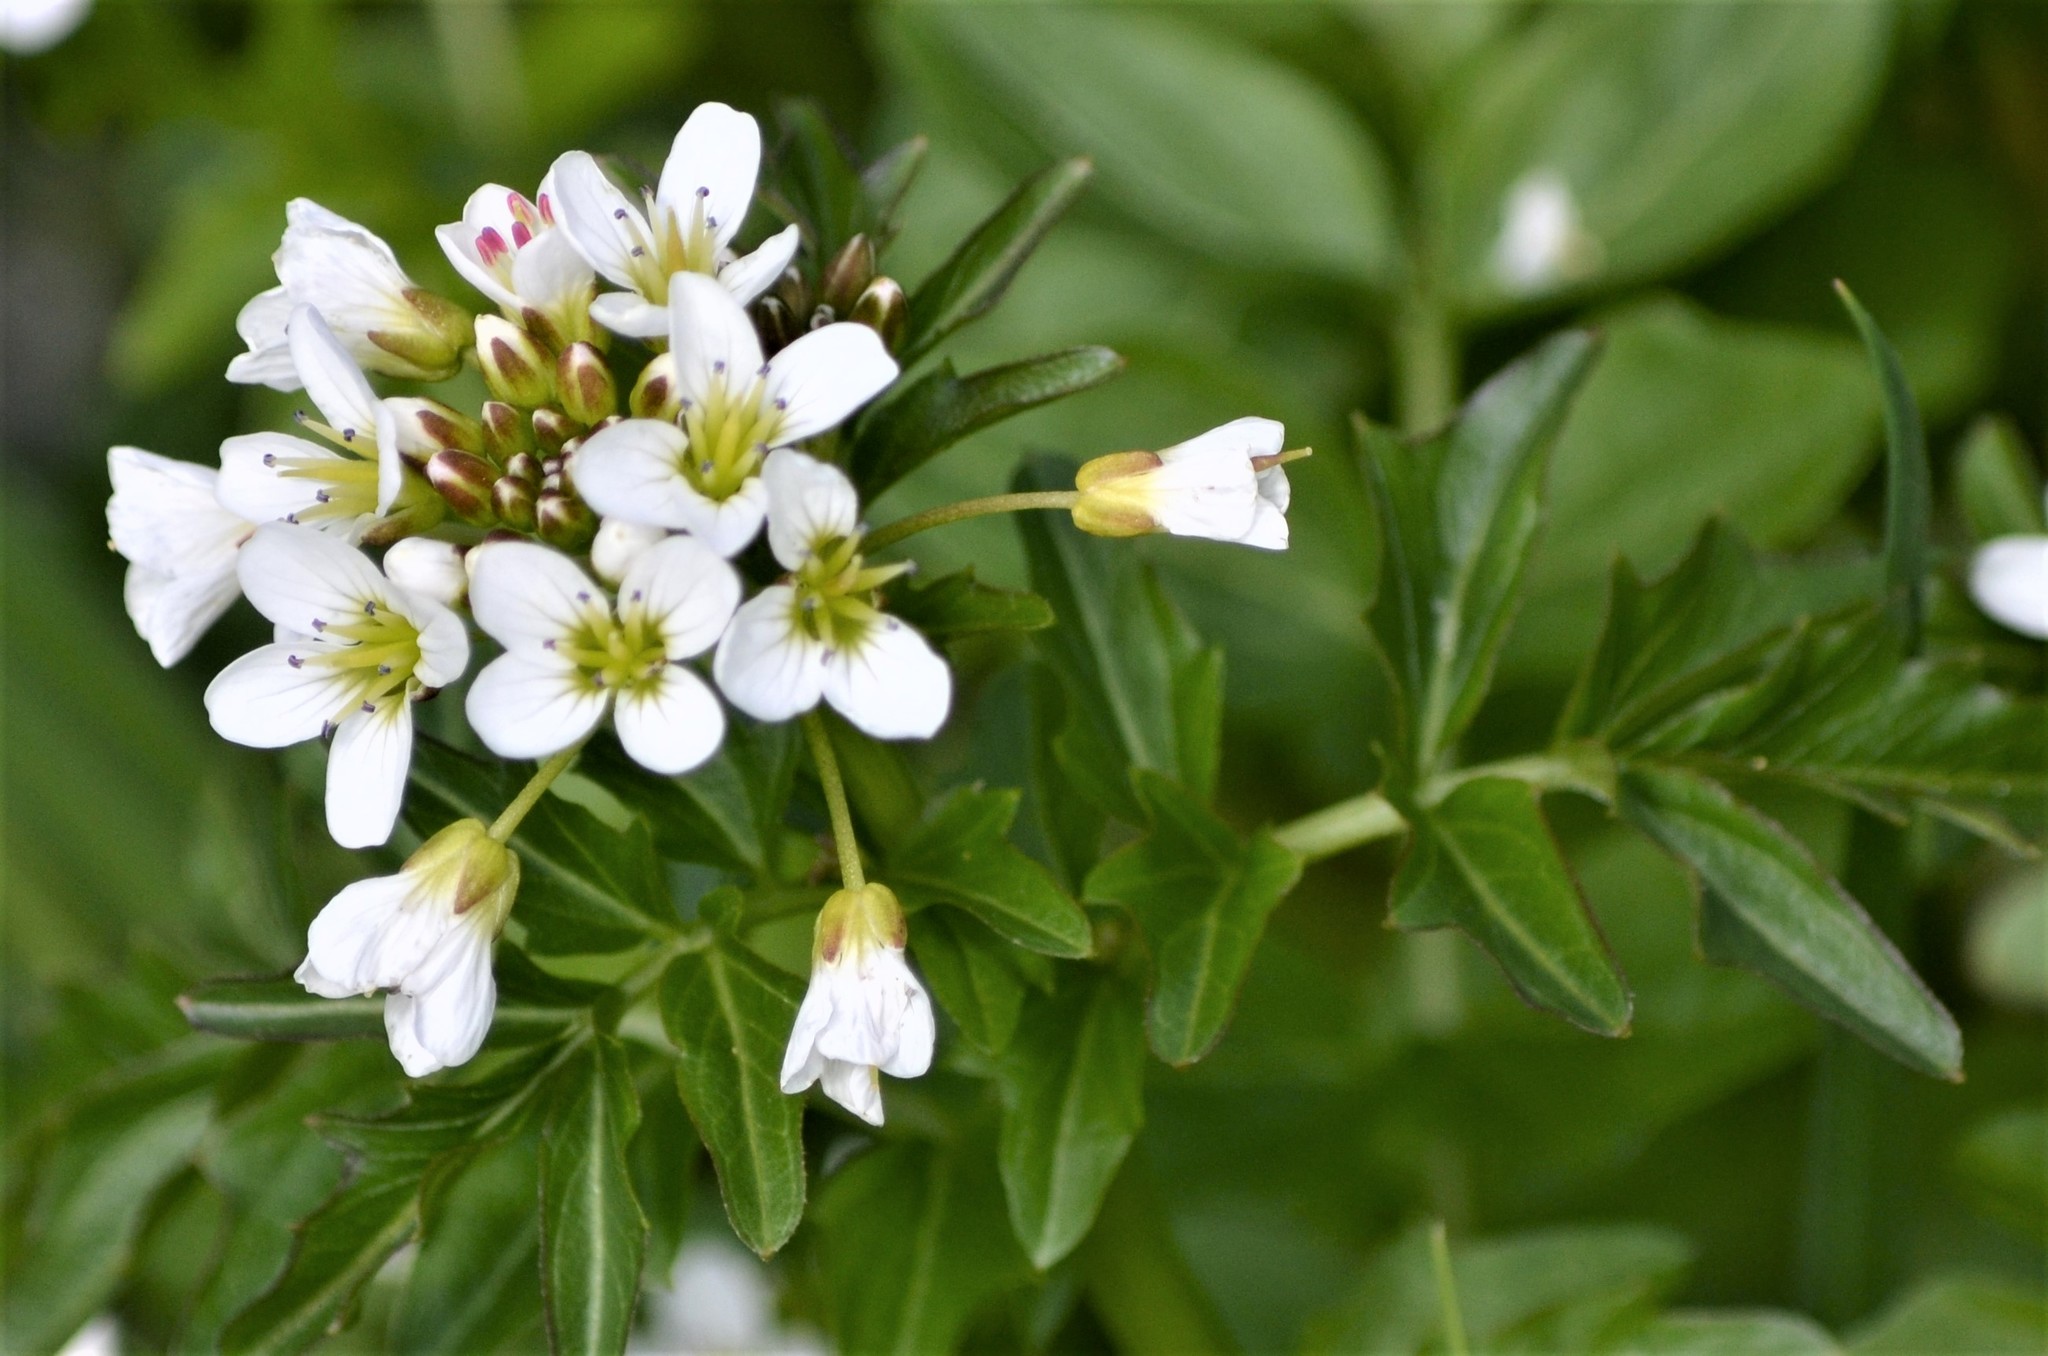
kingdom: Plantae
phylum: Tracheophyta
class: Magnoliopsida
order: Brassicales
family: Brassicaceae
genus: Cardamine
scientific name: Cardamine amara
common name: Large bitter-cress
